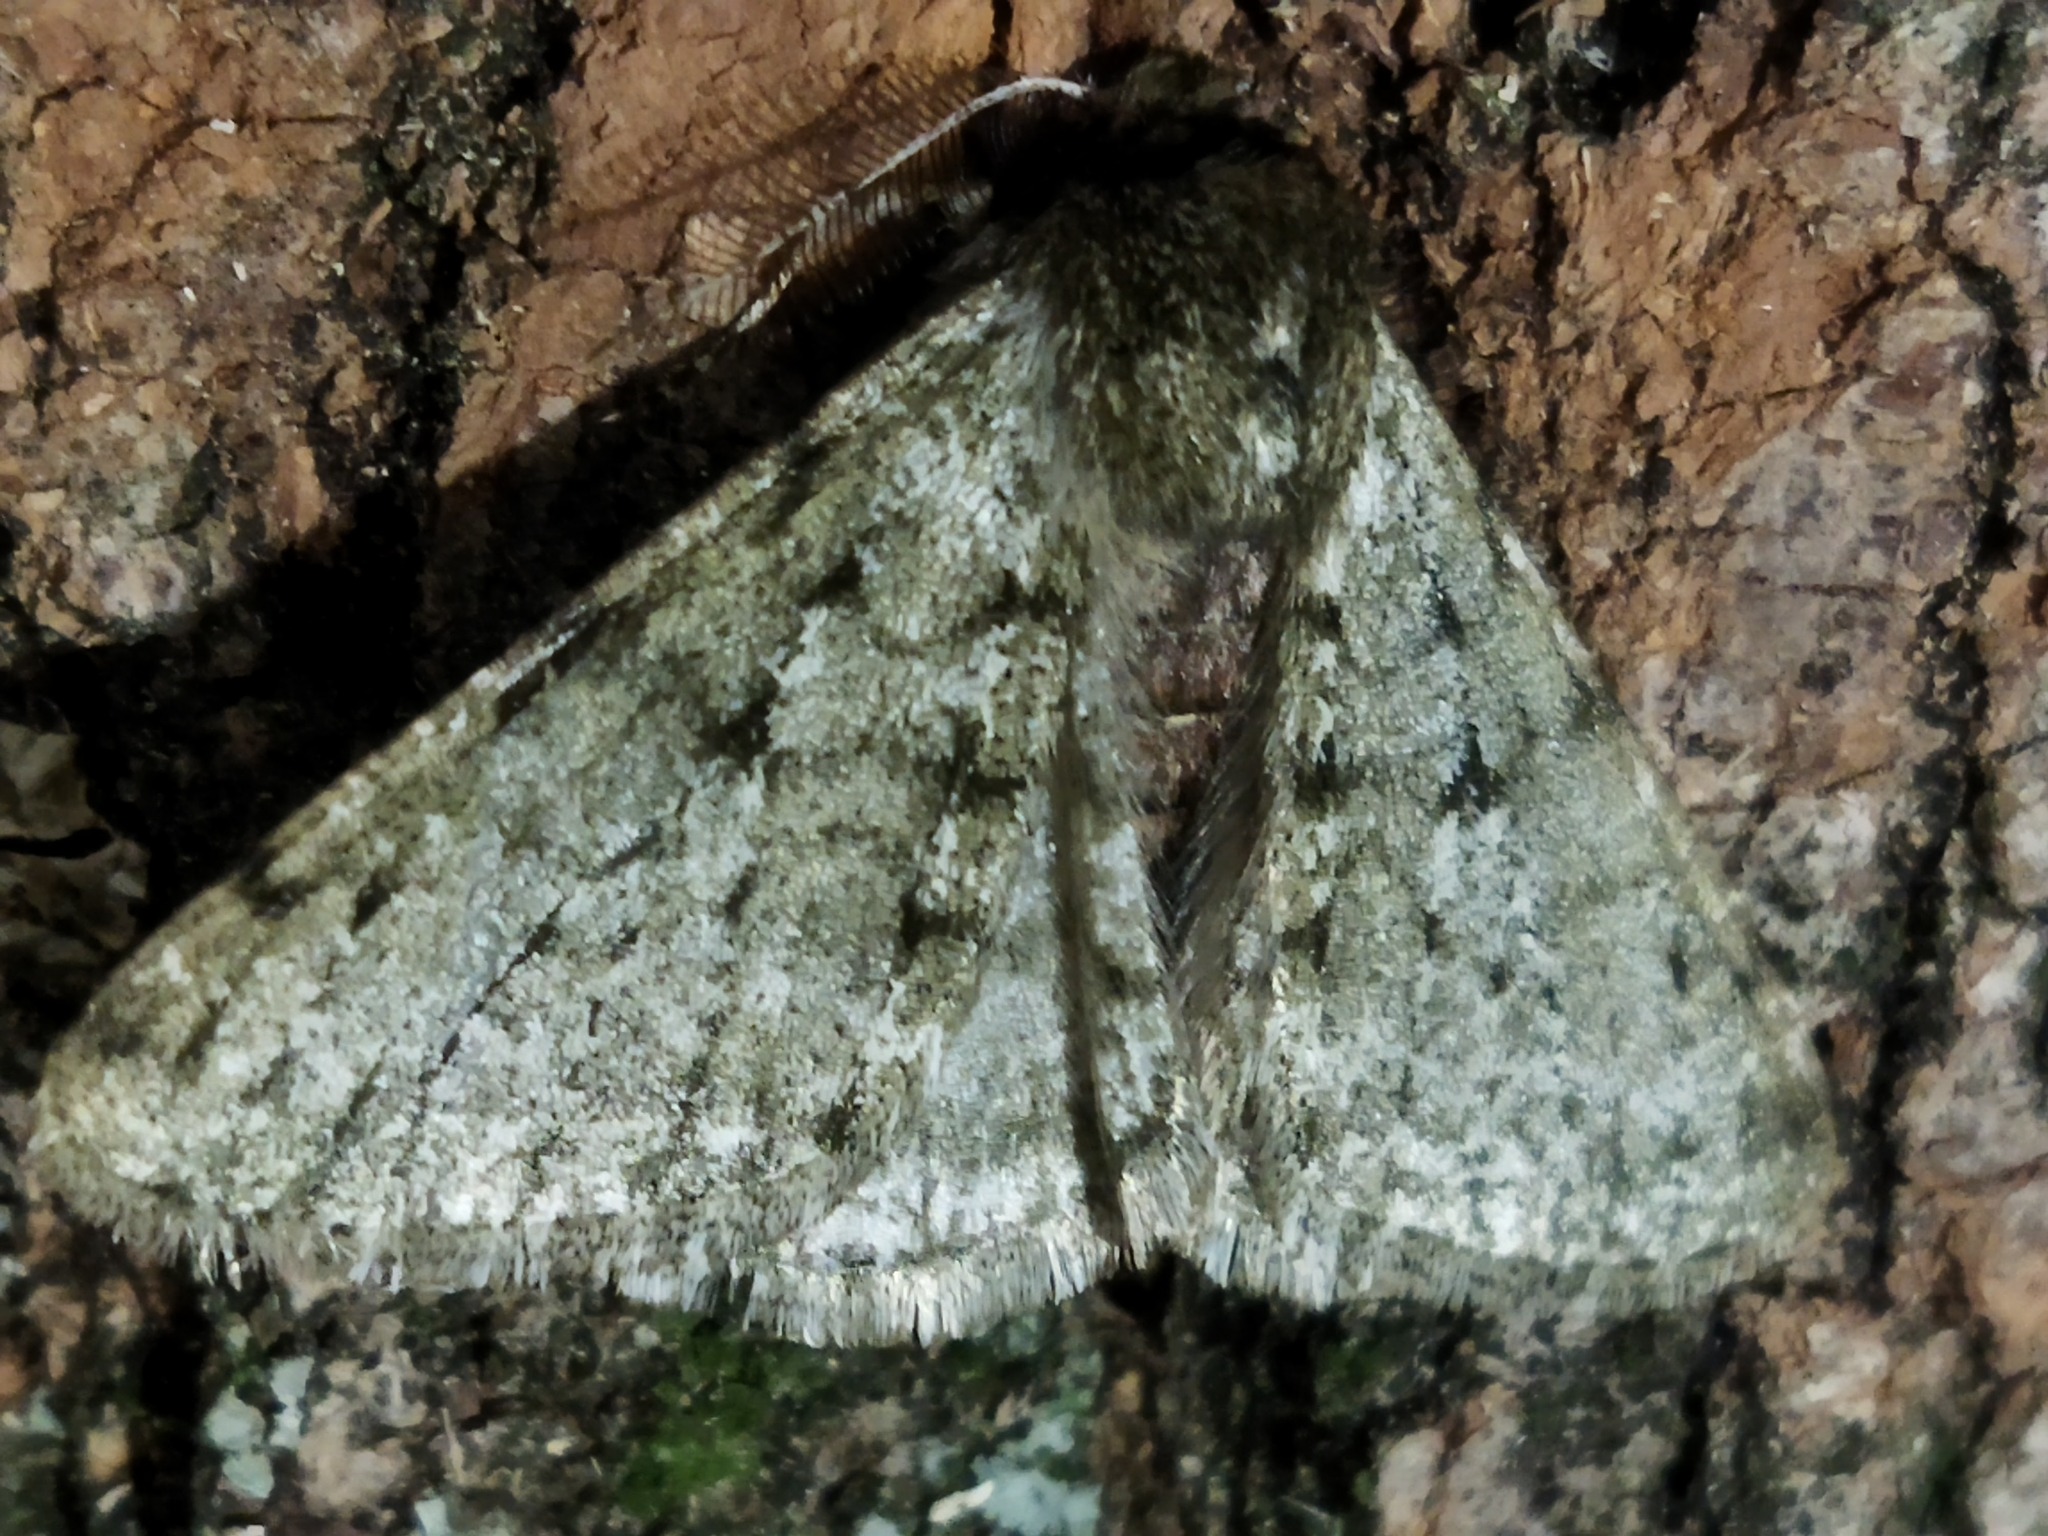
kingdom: Animalia
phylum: Arthropoda
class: Insecta
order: Lepidoptera
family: Geometridae
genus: Phigalia
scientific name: Phigalia pilosaria
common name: Pale brindled beauty
